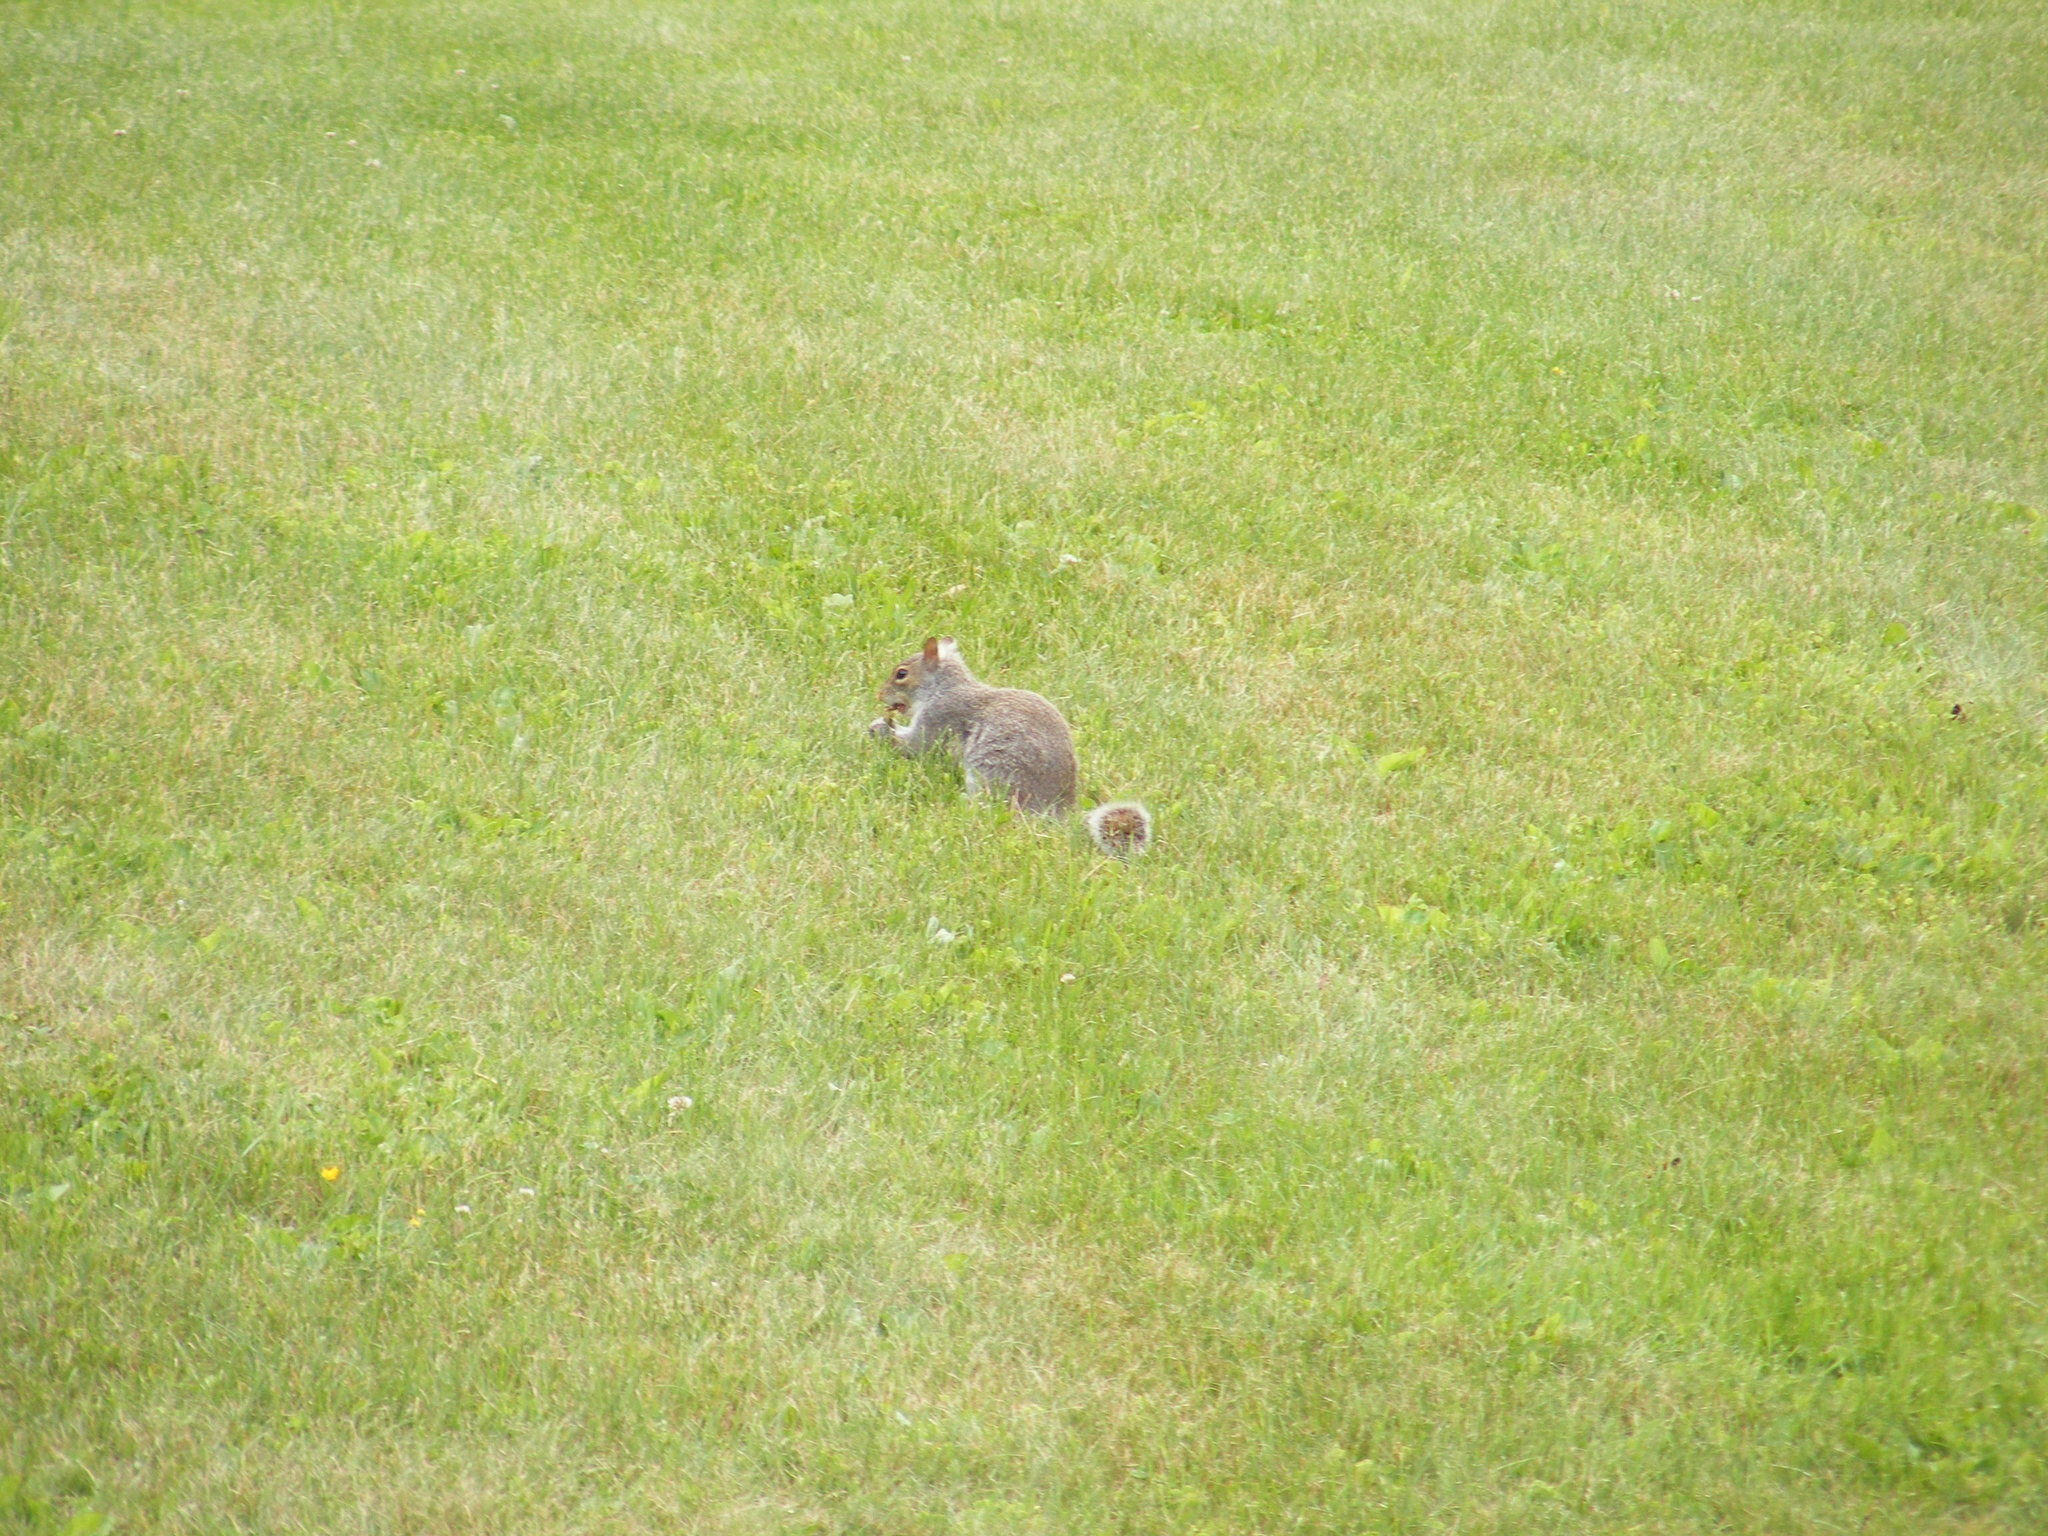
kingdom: Animalia
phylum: Chordata
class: Mammalia
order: Rodentia
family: Sciuridae
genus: Sciurus
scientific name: Sciurus carolinensis
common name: Eastern gray squirrel
